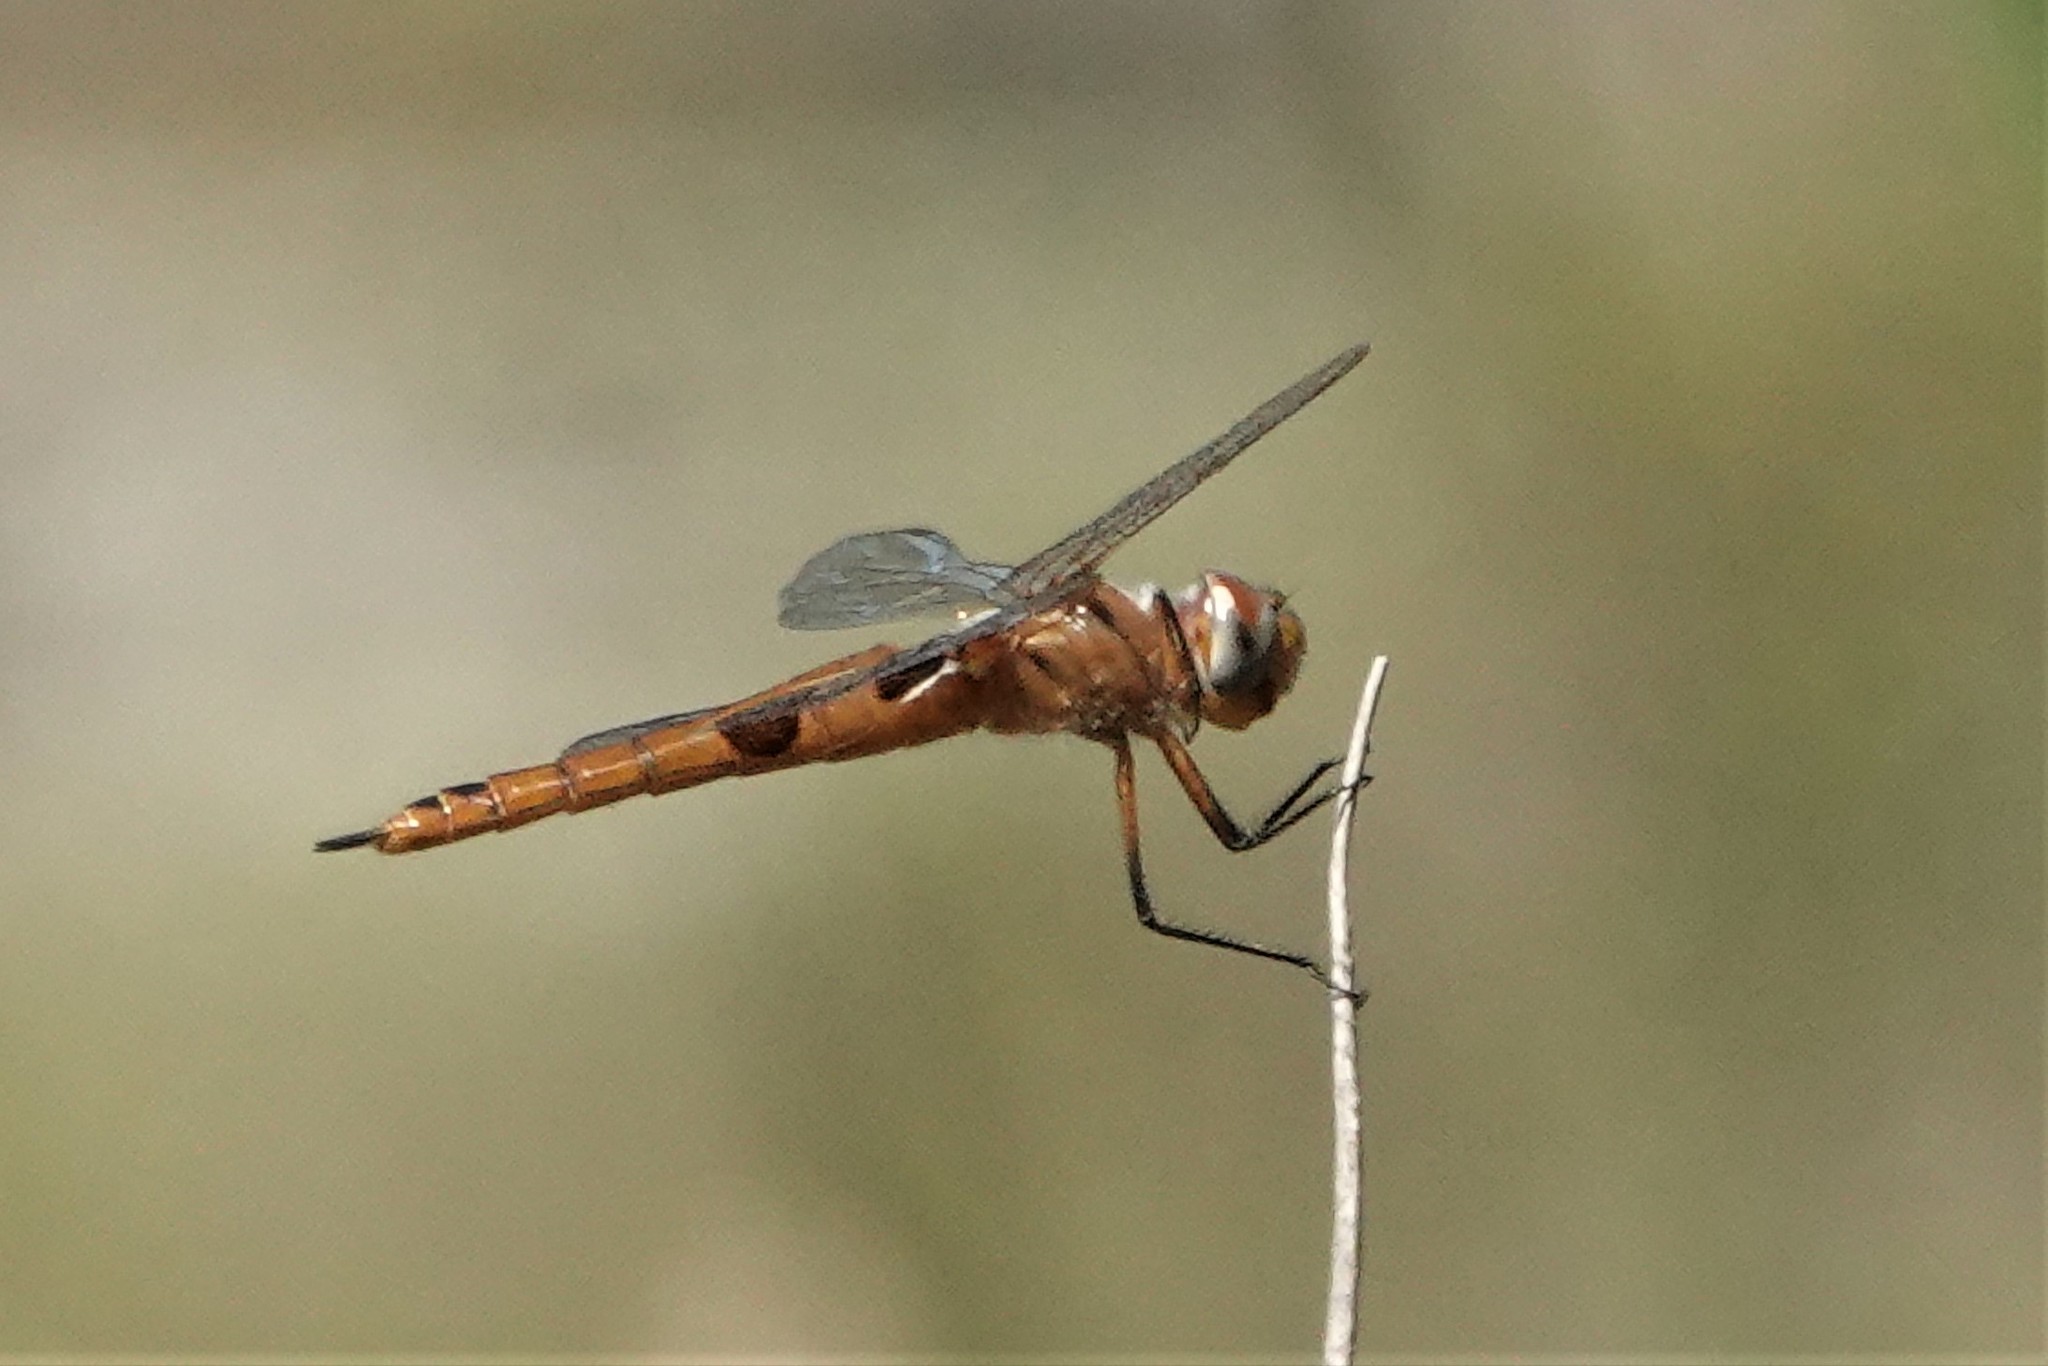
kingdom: Animalia
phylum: Arthropoda
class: Insecta
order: Odonata
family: Libellulidae
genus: Tramea
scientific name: Tramea onusta
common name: Red saddlebags
